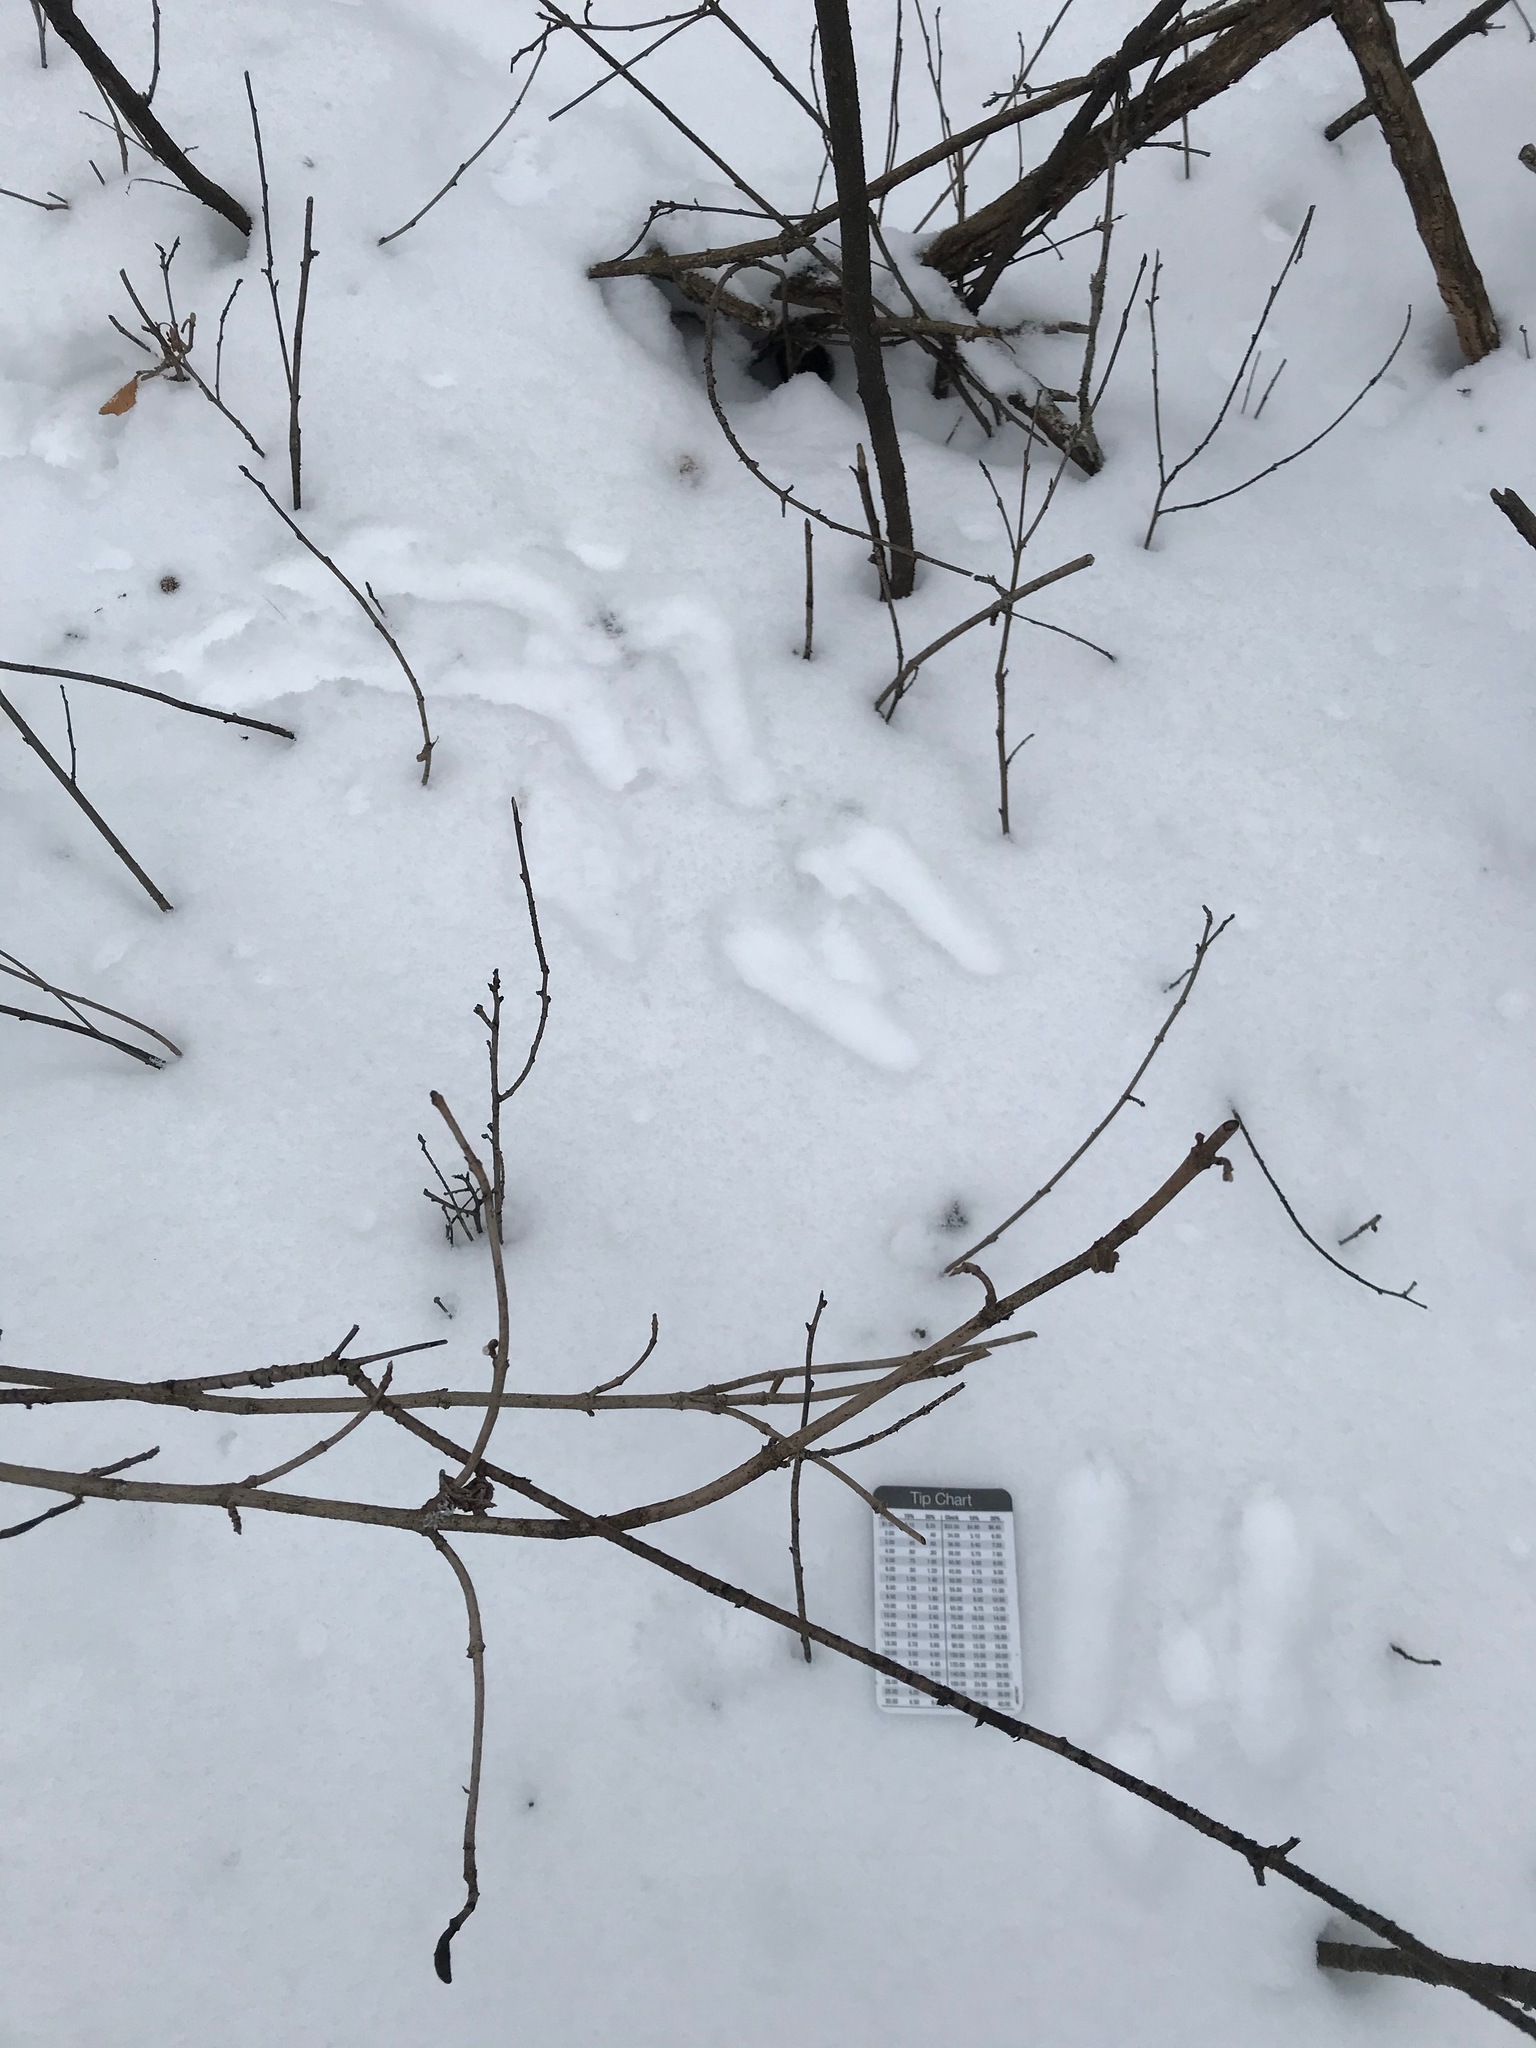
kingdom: Animalia
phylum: Chordata
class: Mammalia
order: Lagomorpha
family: Leporidae
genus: Sylvilagus
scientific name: Sylvilagus floridanus
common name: Eastern cottontail
